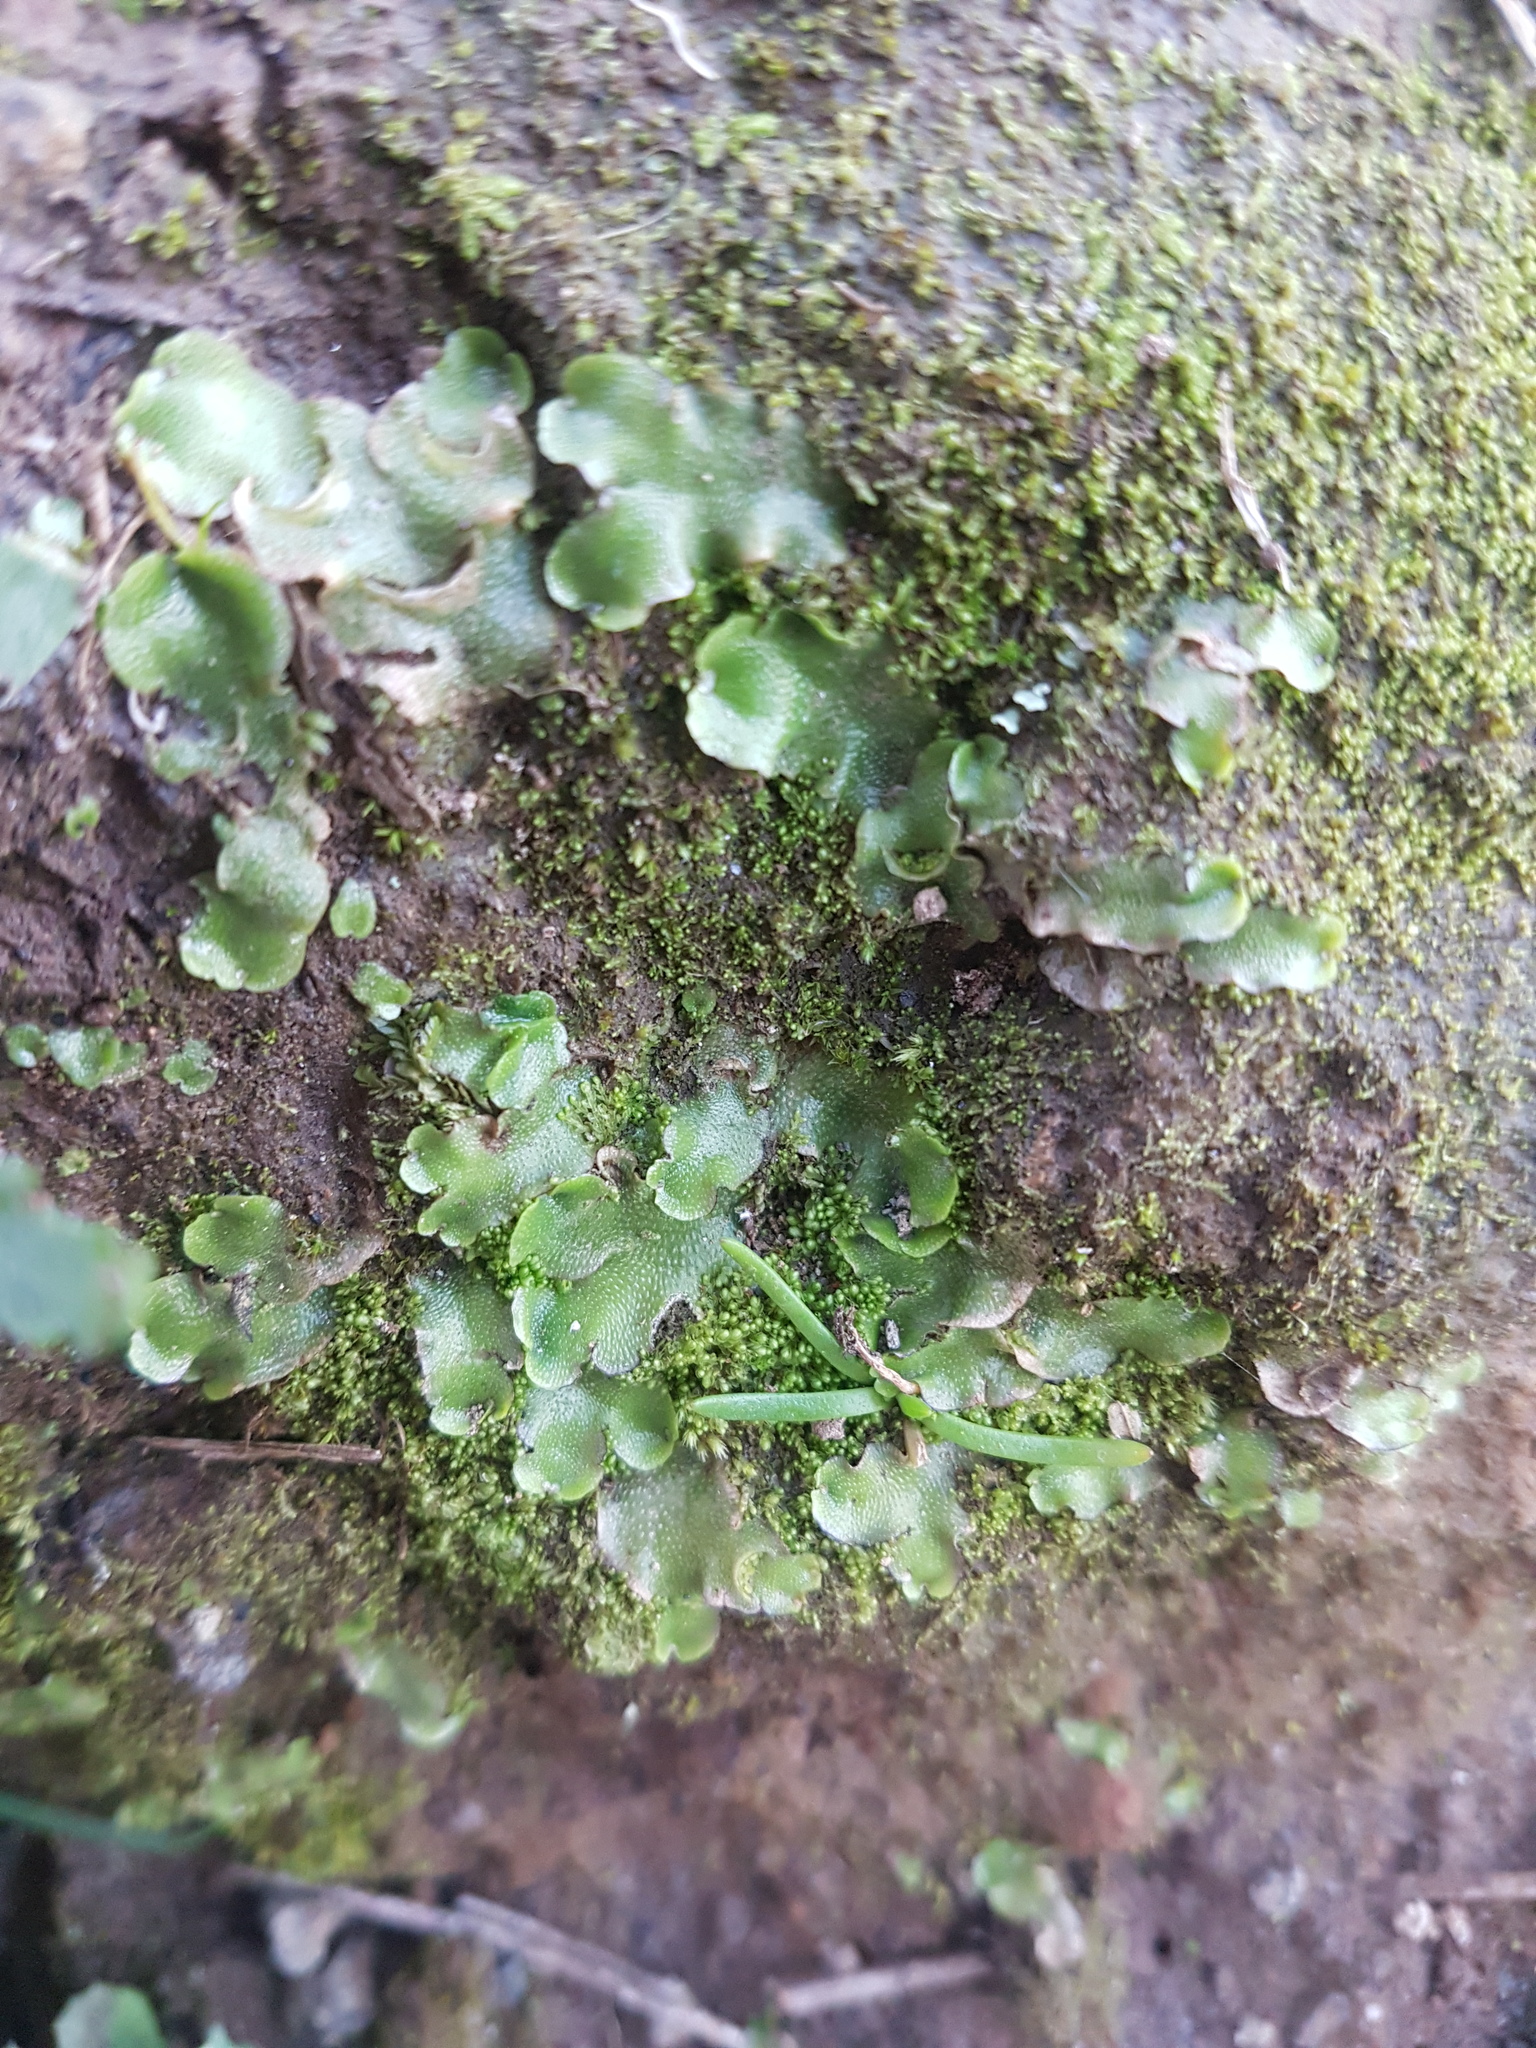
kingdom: Plantae
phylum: Marchantiophyta
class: Marchantiopsida
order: Lunulariales
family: Lunulariaceae
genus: Lunularia
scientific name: Lunularia cruciata
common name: Crescent-cup liverwort
